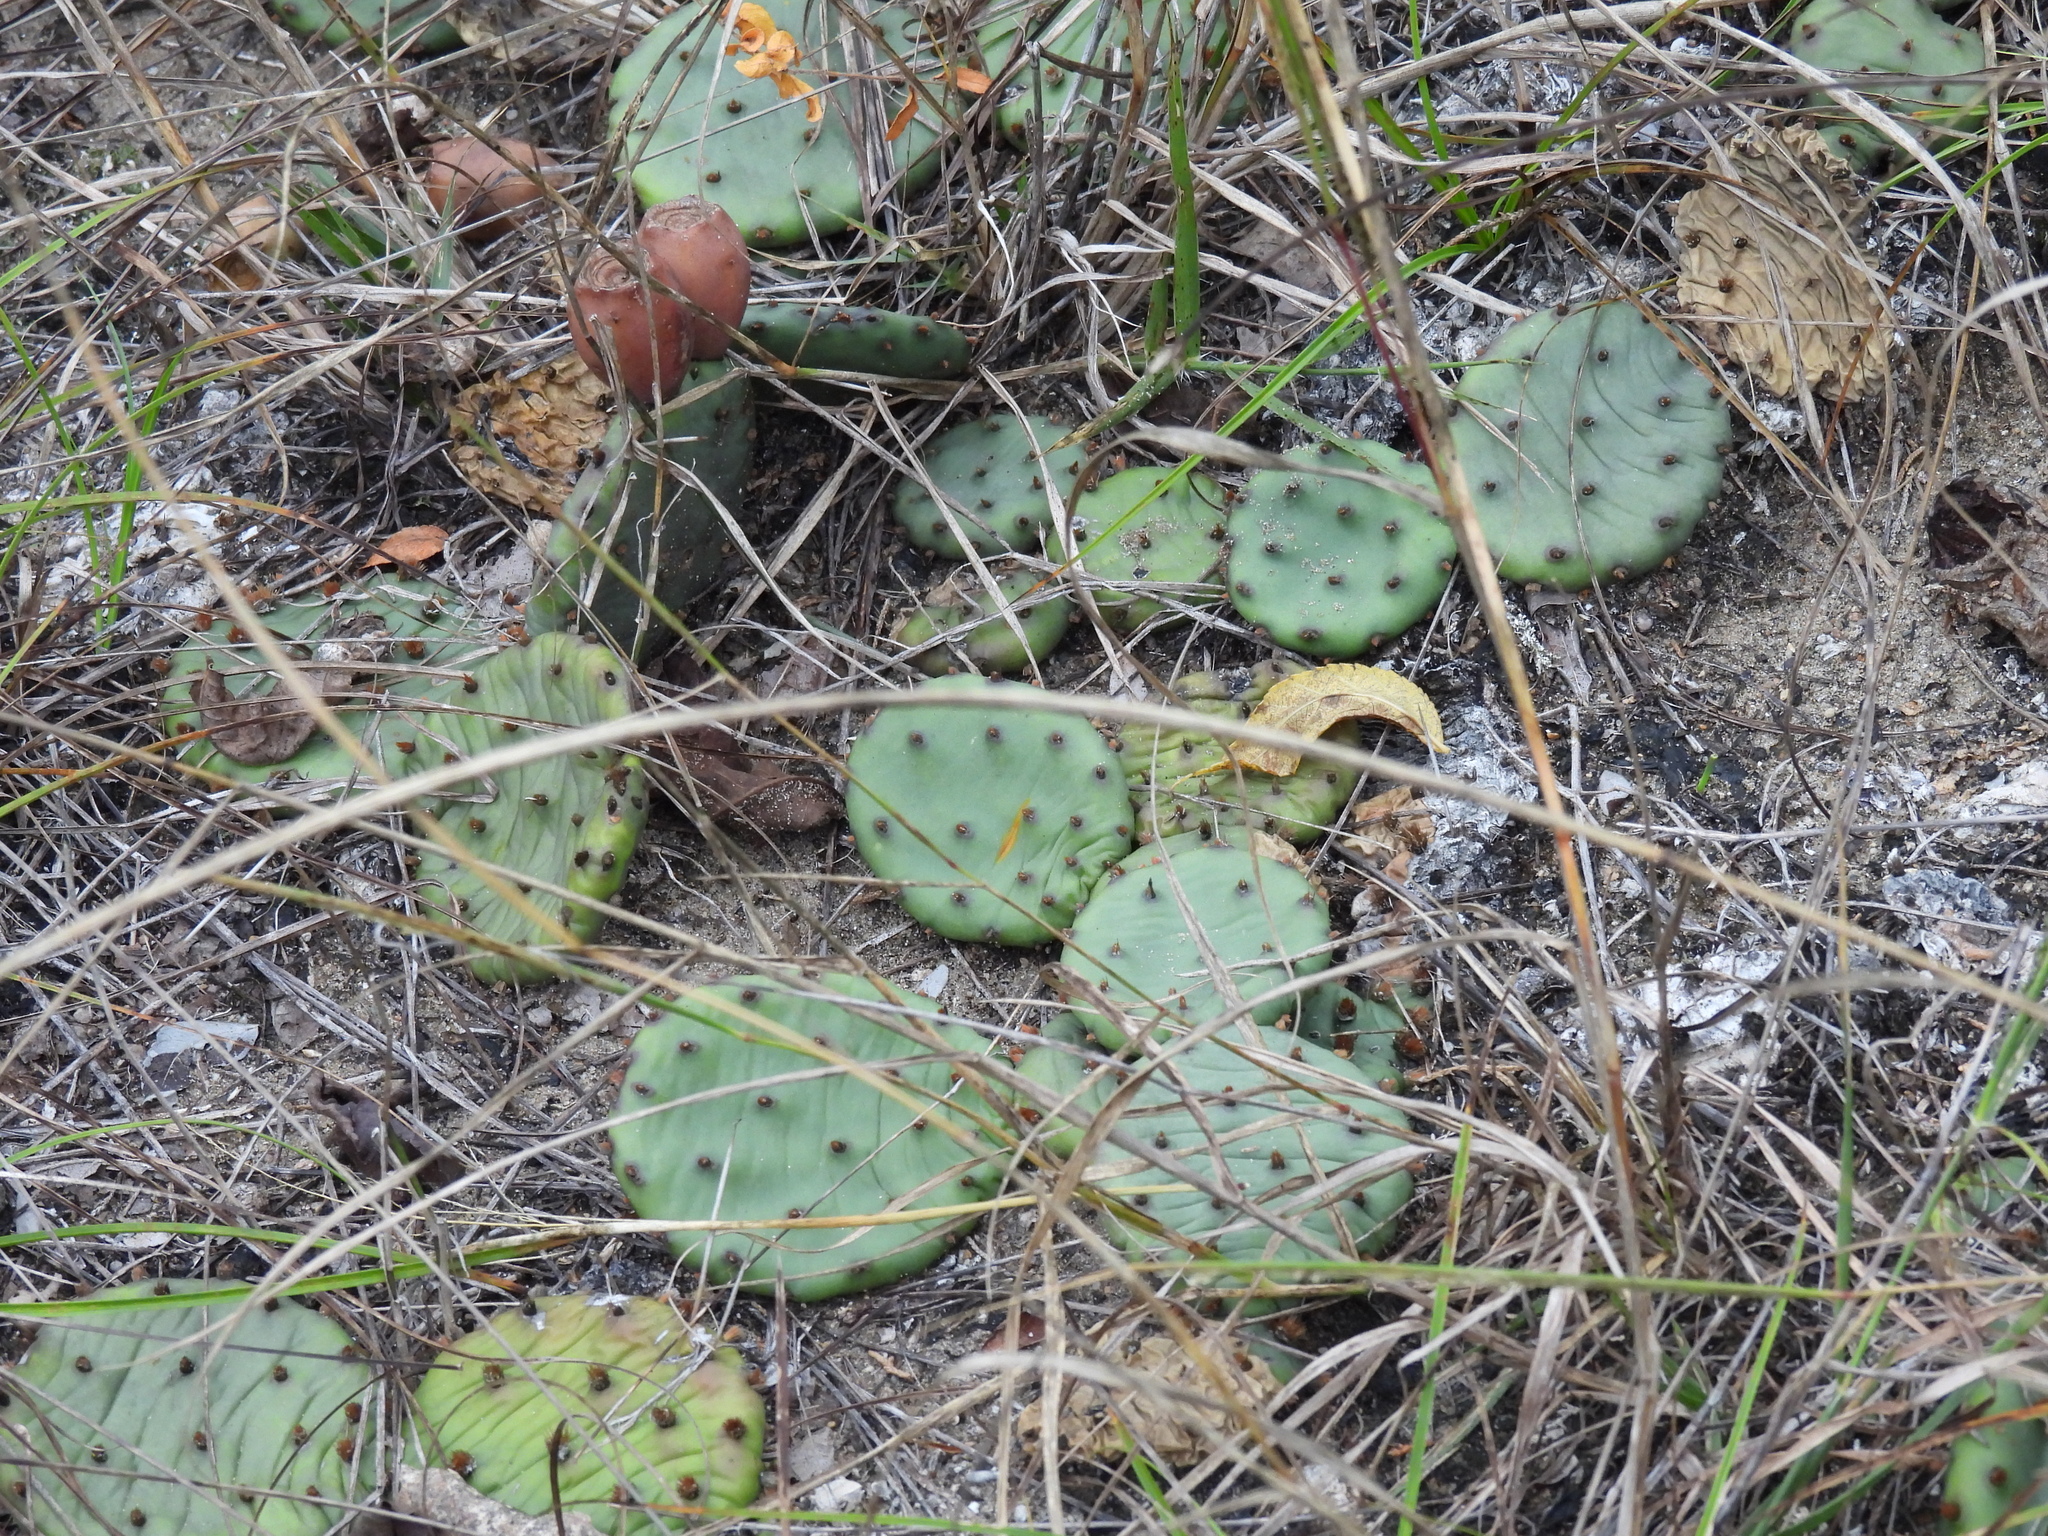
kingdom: Plantae
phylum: Tracheophyta
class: Magnoliopsida
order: Caryophyllales
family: Cactaceae
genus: Opuntia
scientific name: Opuntia humifusa
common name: Eastern prickly-pear
